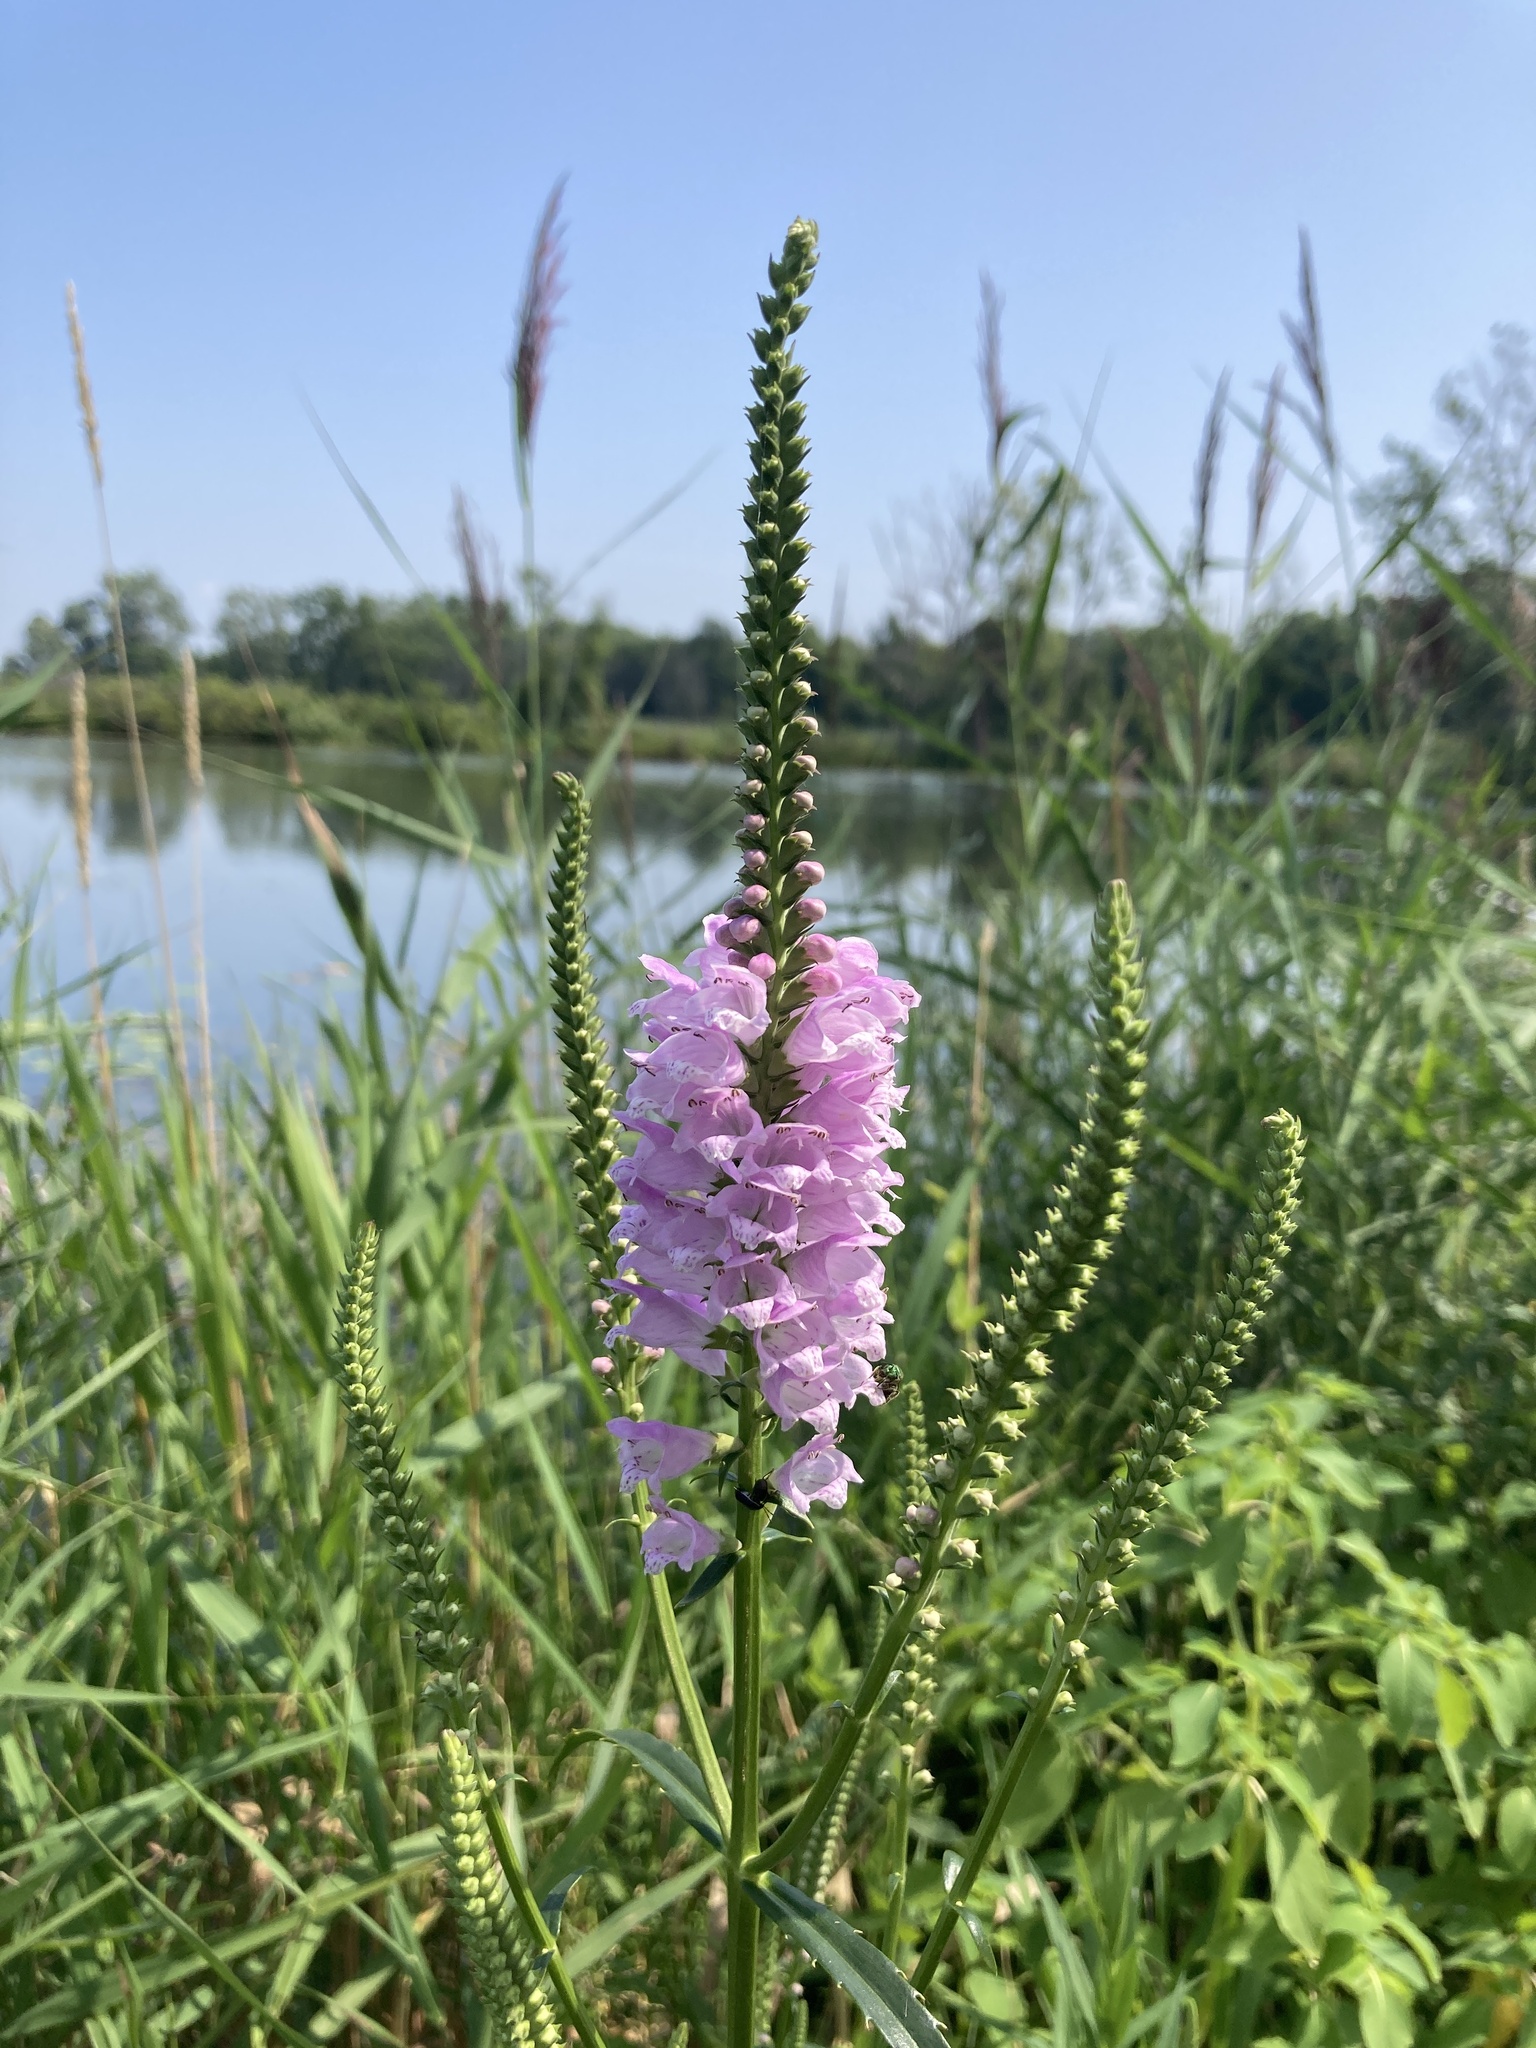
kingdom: Plantae
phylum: Tracheophyta
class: Magnoliopsida
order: Lamiales
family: Lamiaceae
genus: Physostegia
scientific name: Physostegia virginiana
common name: Obedient-plant
